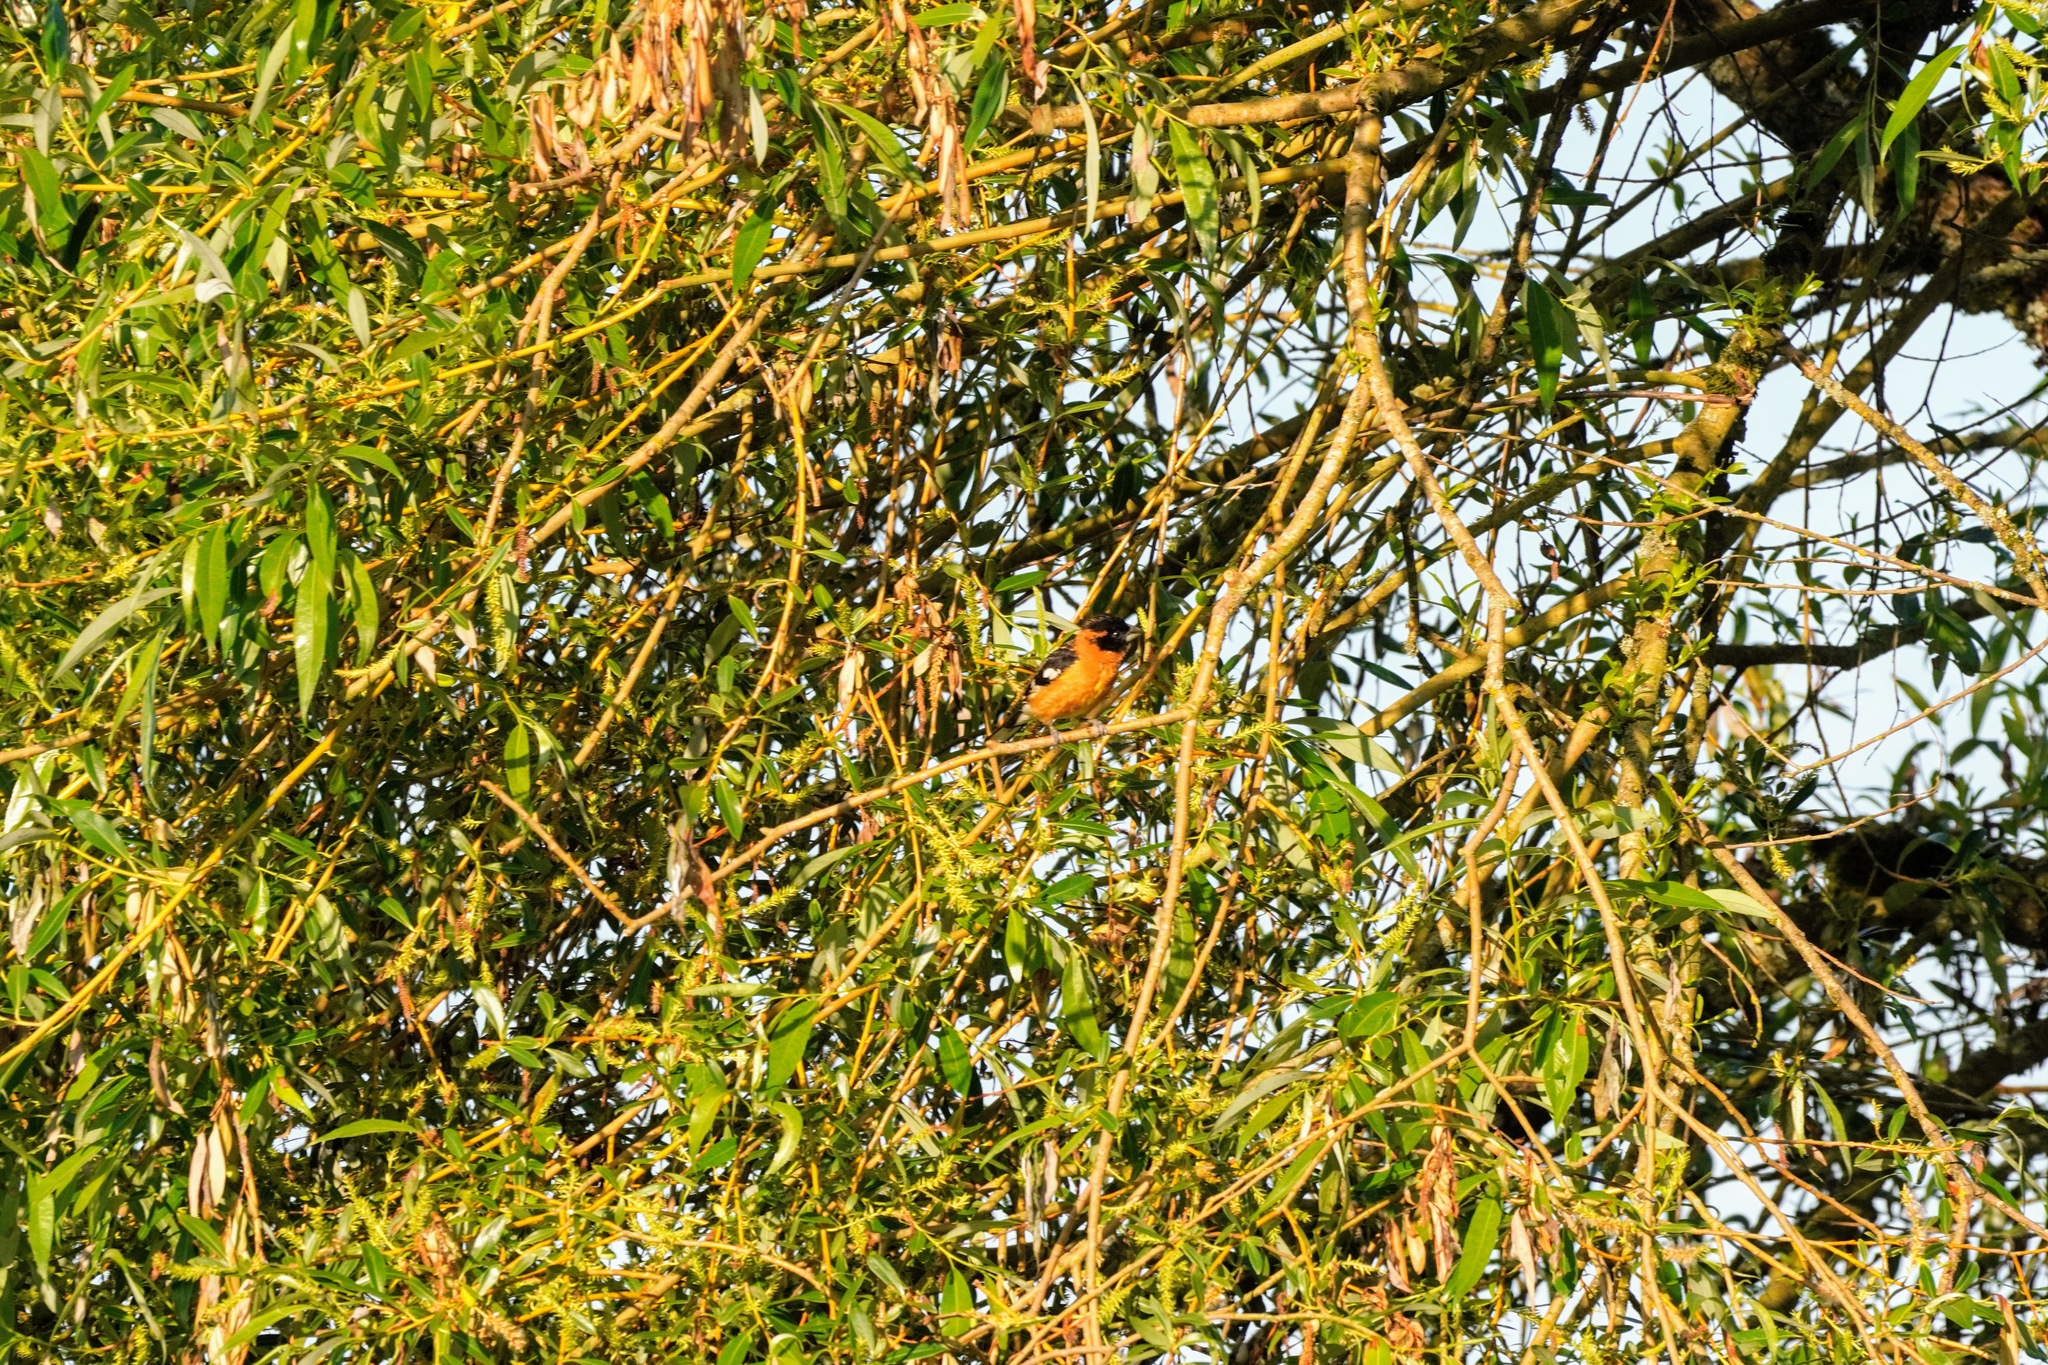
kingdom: Animalia
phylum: Chordata
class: Aves
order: Passeriformes
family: Cardinalidae
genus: Pheucticus
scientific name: Pheucticus melanocephalus
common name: Black-headed grosbeak
